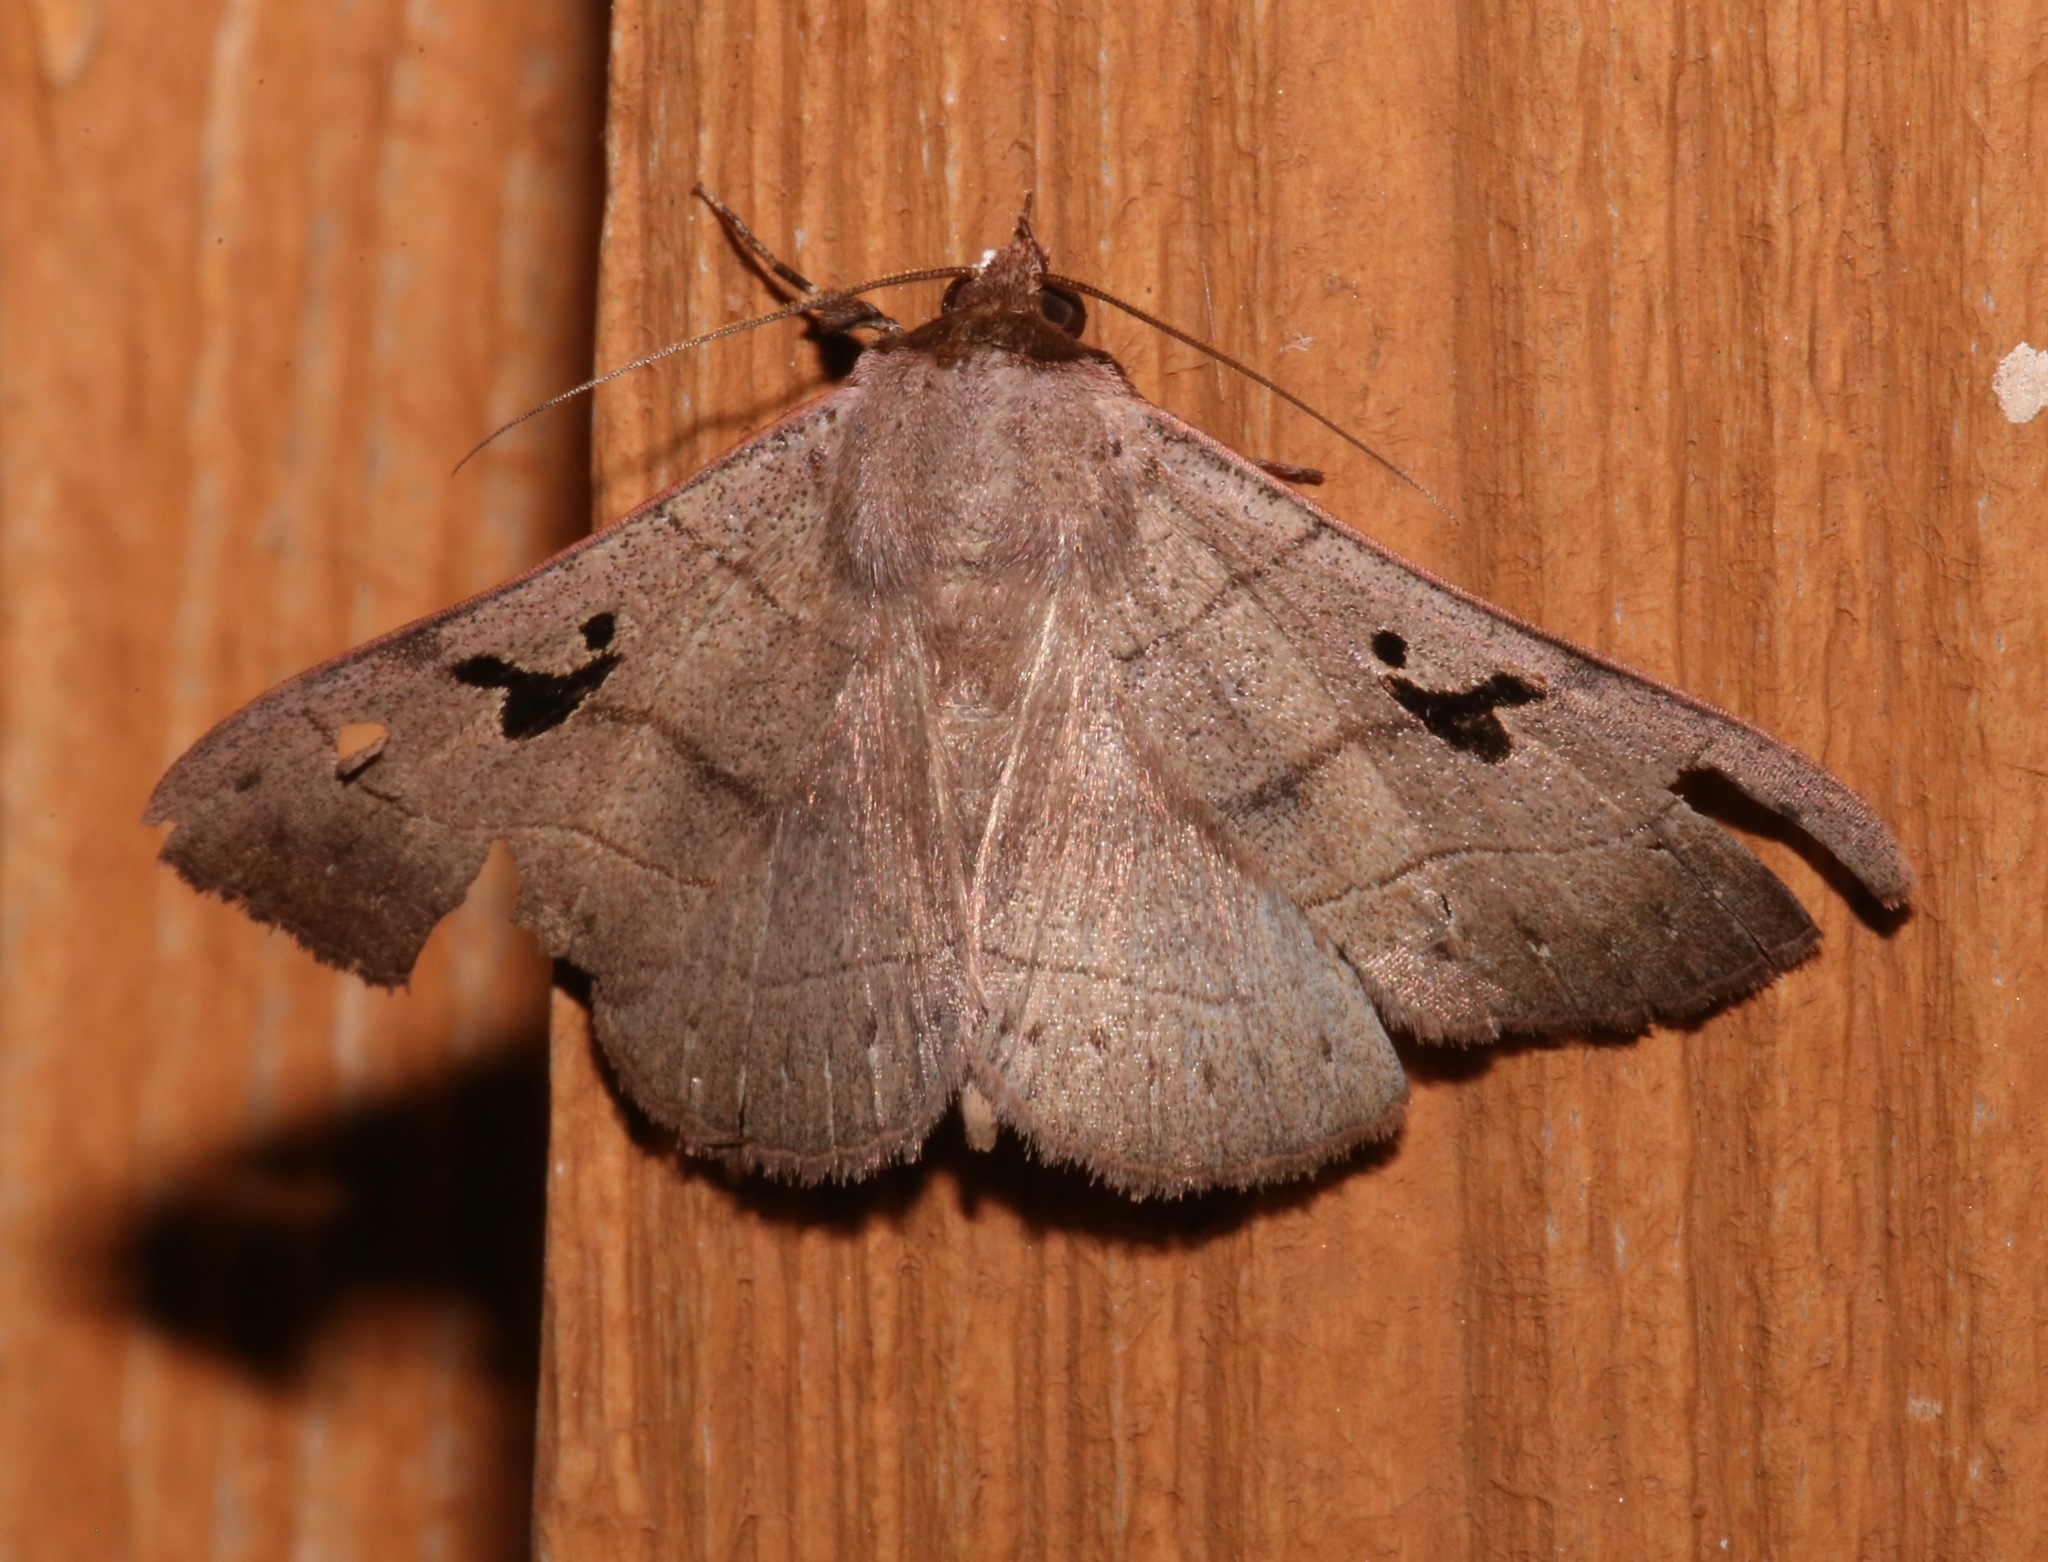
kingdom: Animalia
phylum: Arthropoda
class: Insecta
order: Lepidoptera
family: Erebidae
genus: Panopoda
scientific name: Panopoda carneicosta
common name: Brown panopoda moth
